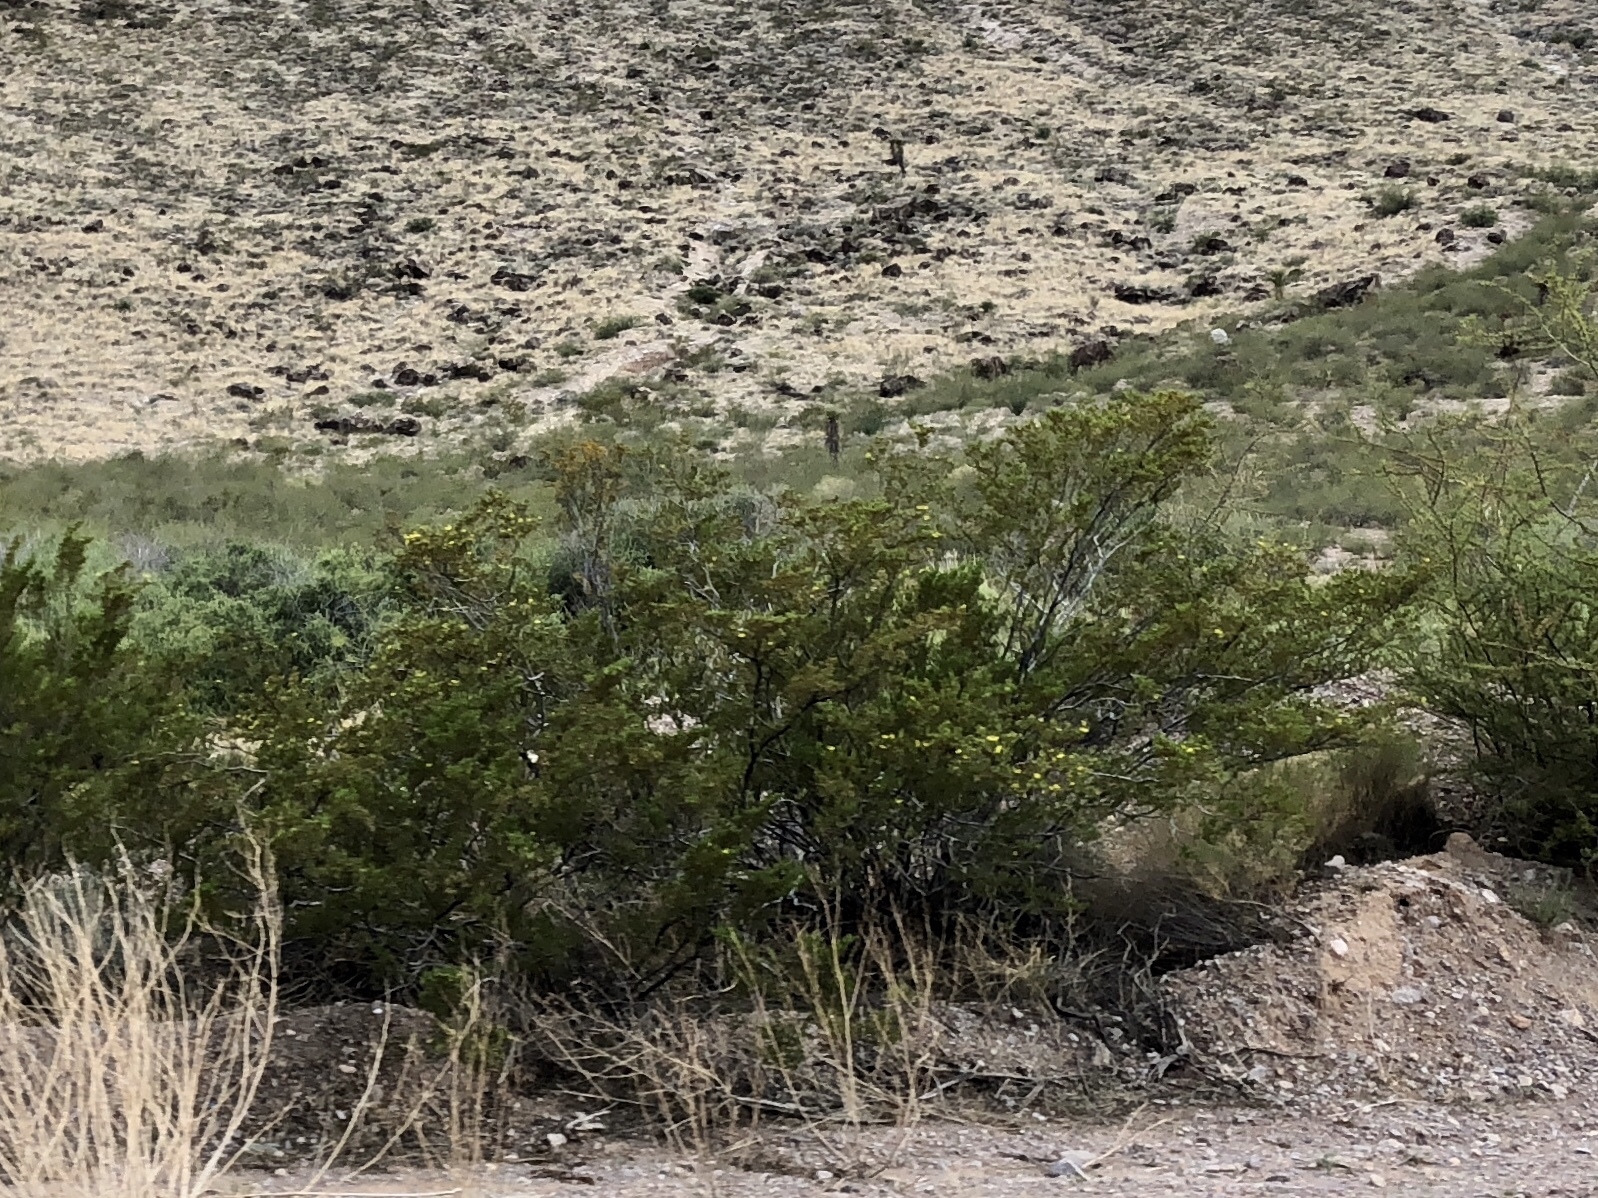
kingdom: Plantae
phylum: Tracheophyta
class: Magnoliopsida
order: Zygophyllales
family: Zygophyllaceae
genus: Larrea
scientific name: Larrea tridentata
